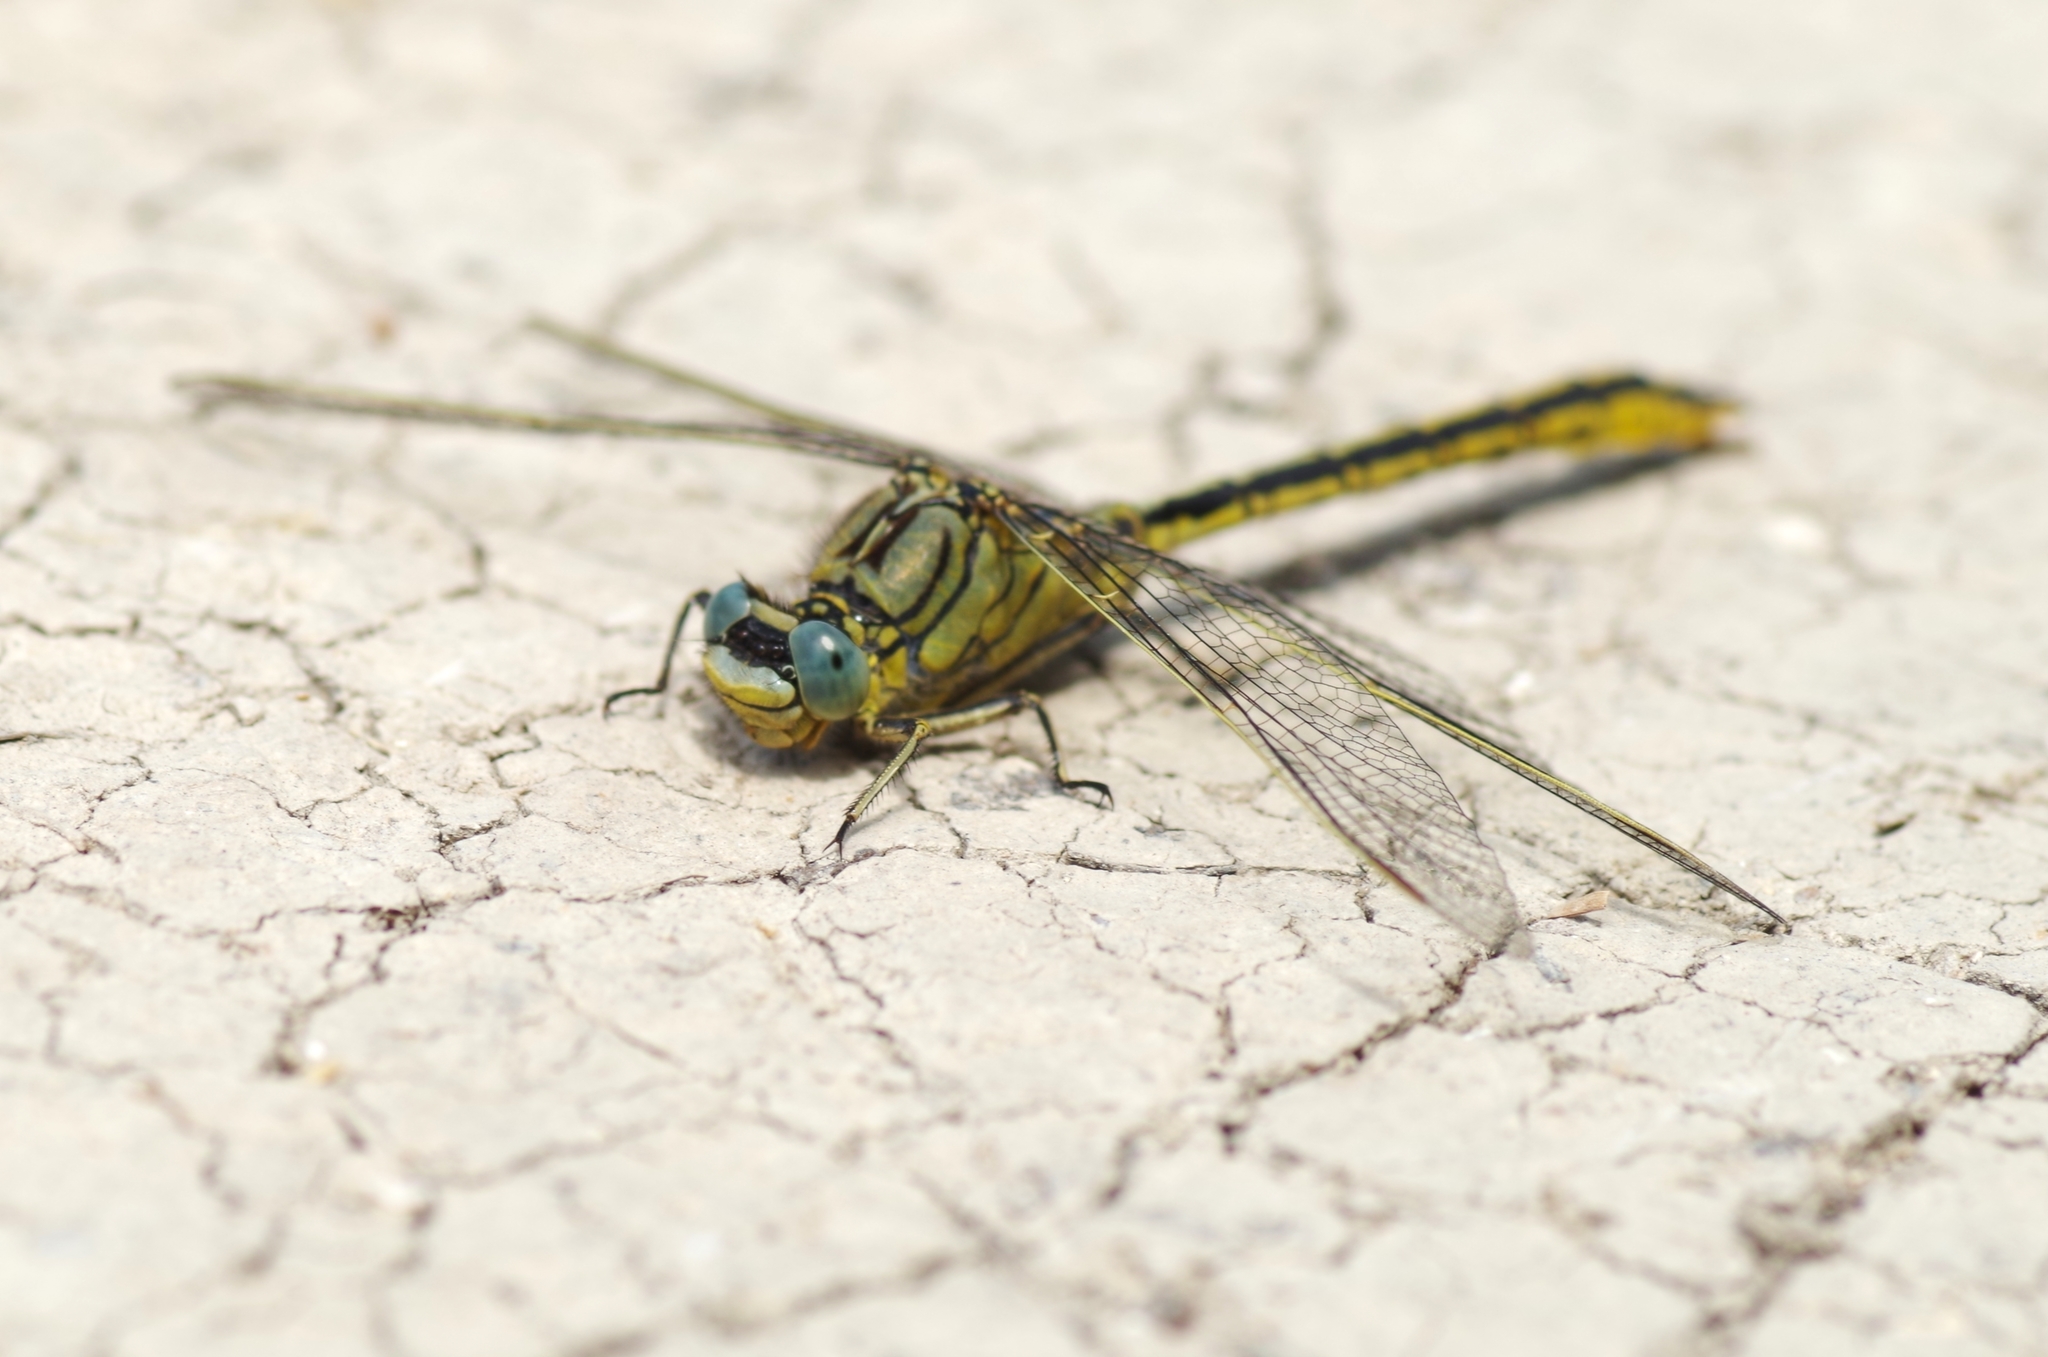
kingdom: Animalia
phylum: Arthropoda
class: Insecta
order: Odonata
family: Gomphidae
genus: Gomphus
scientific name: Gomphus pulchellus
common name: Western clubtail
